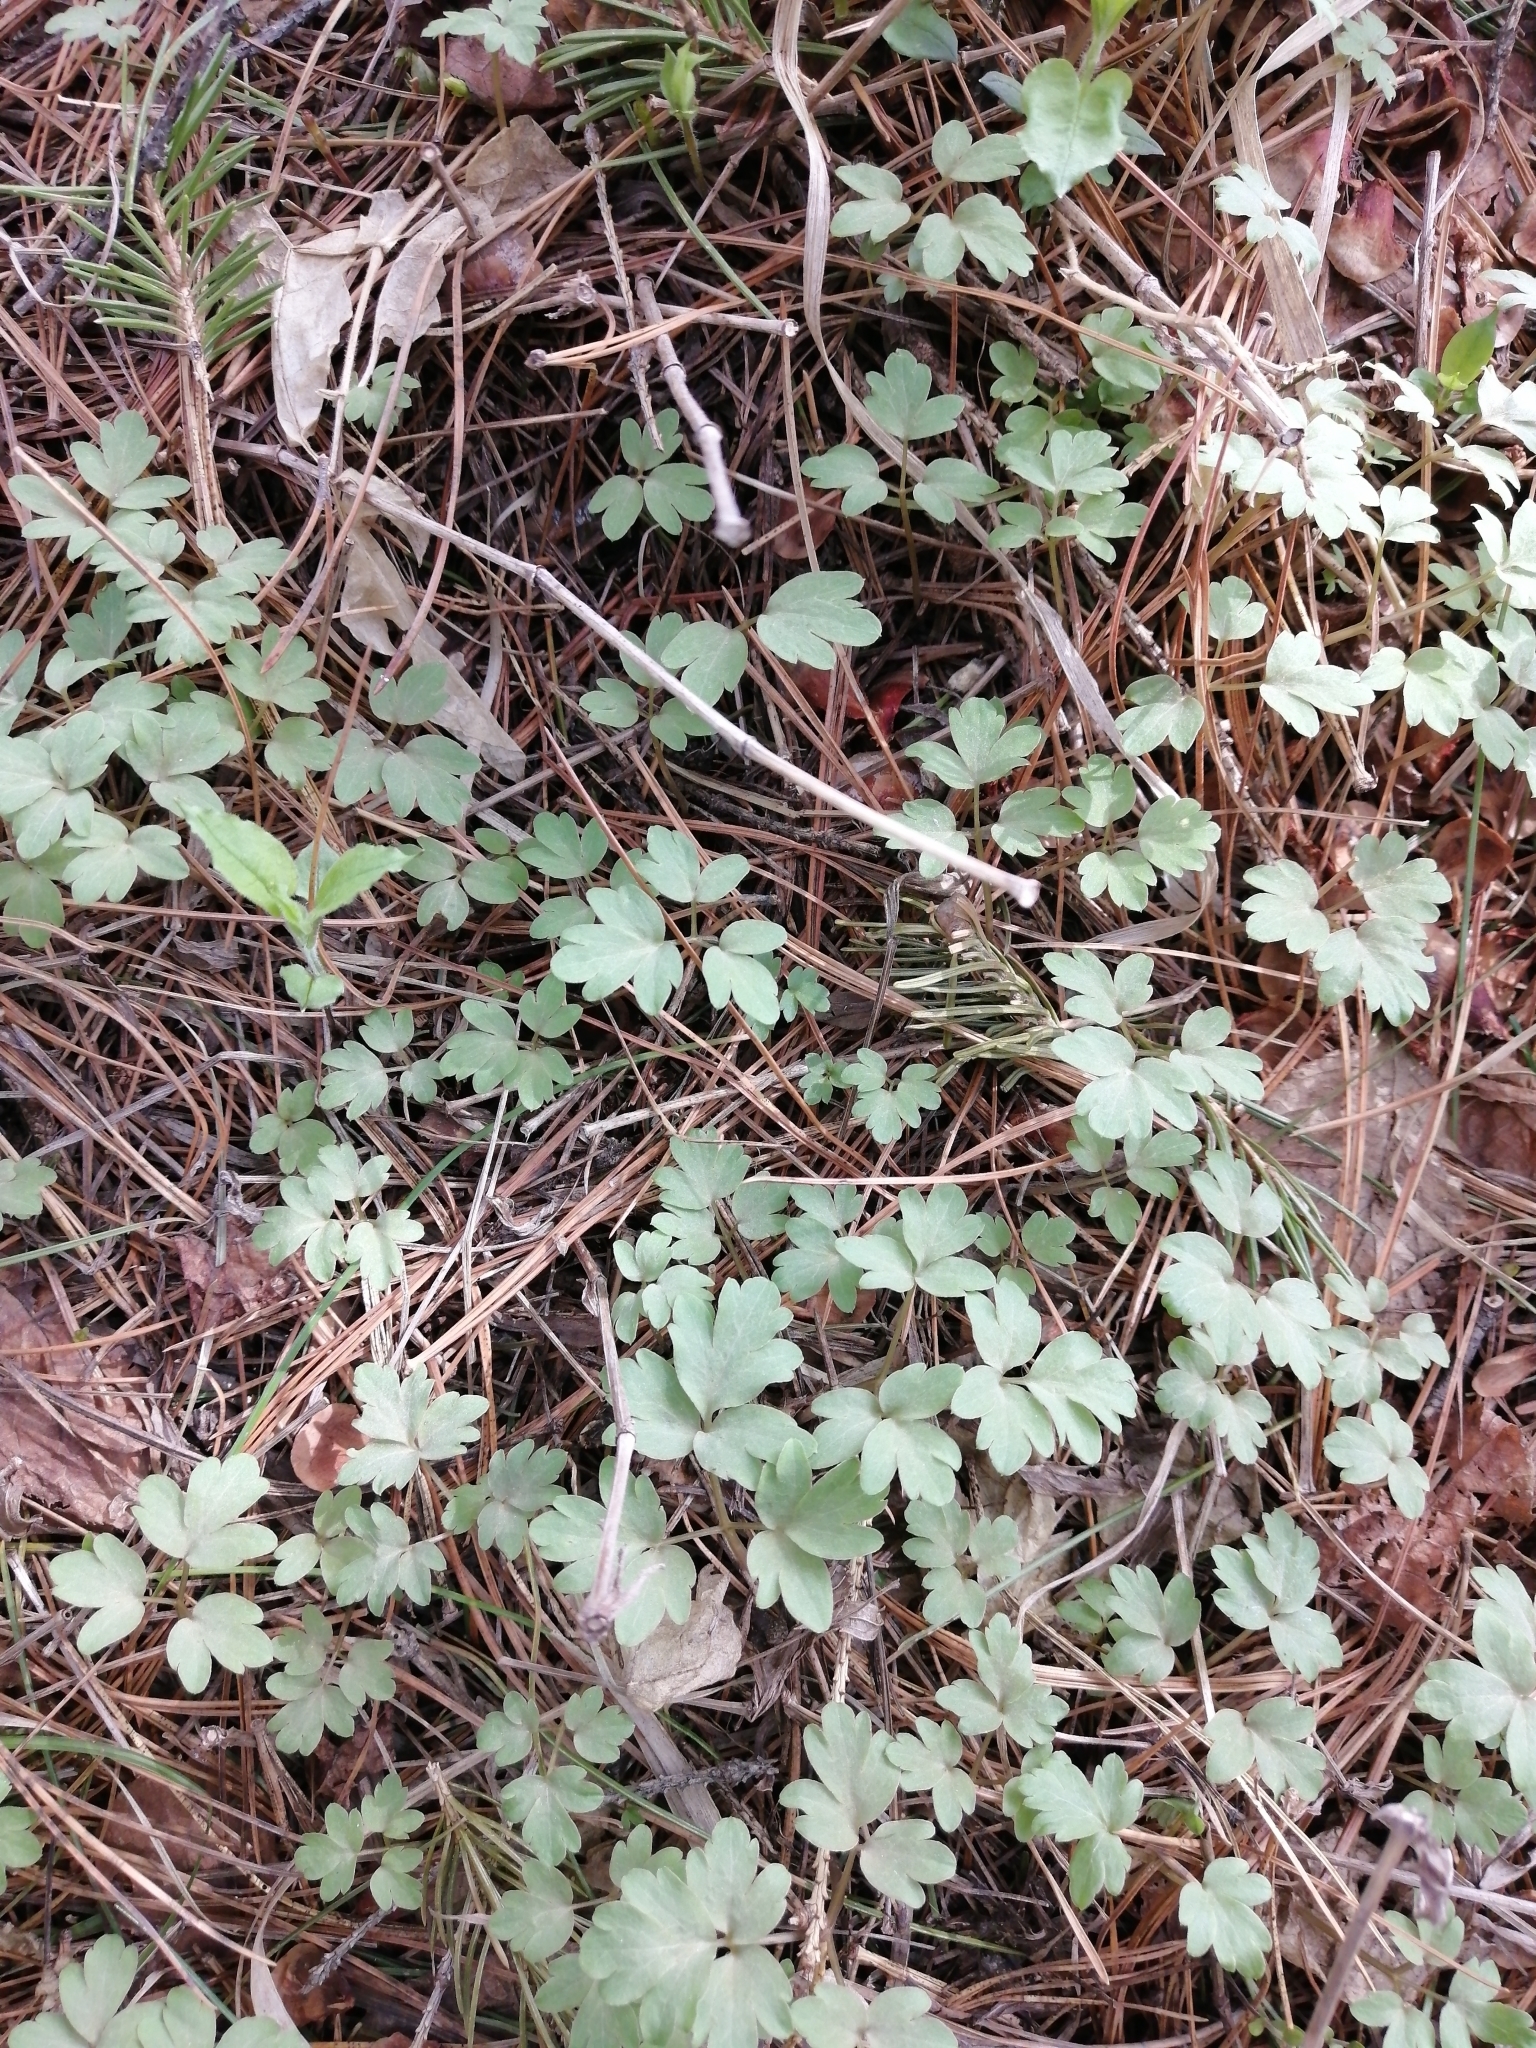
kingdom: Plantae
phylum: Tracheophyta
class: Magnoliopsida
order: Dipsacales
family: Viburnaceae
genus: Adoxa
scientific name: Adoxa moschatellina
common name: Moschatel
